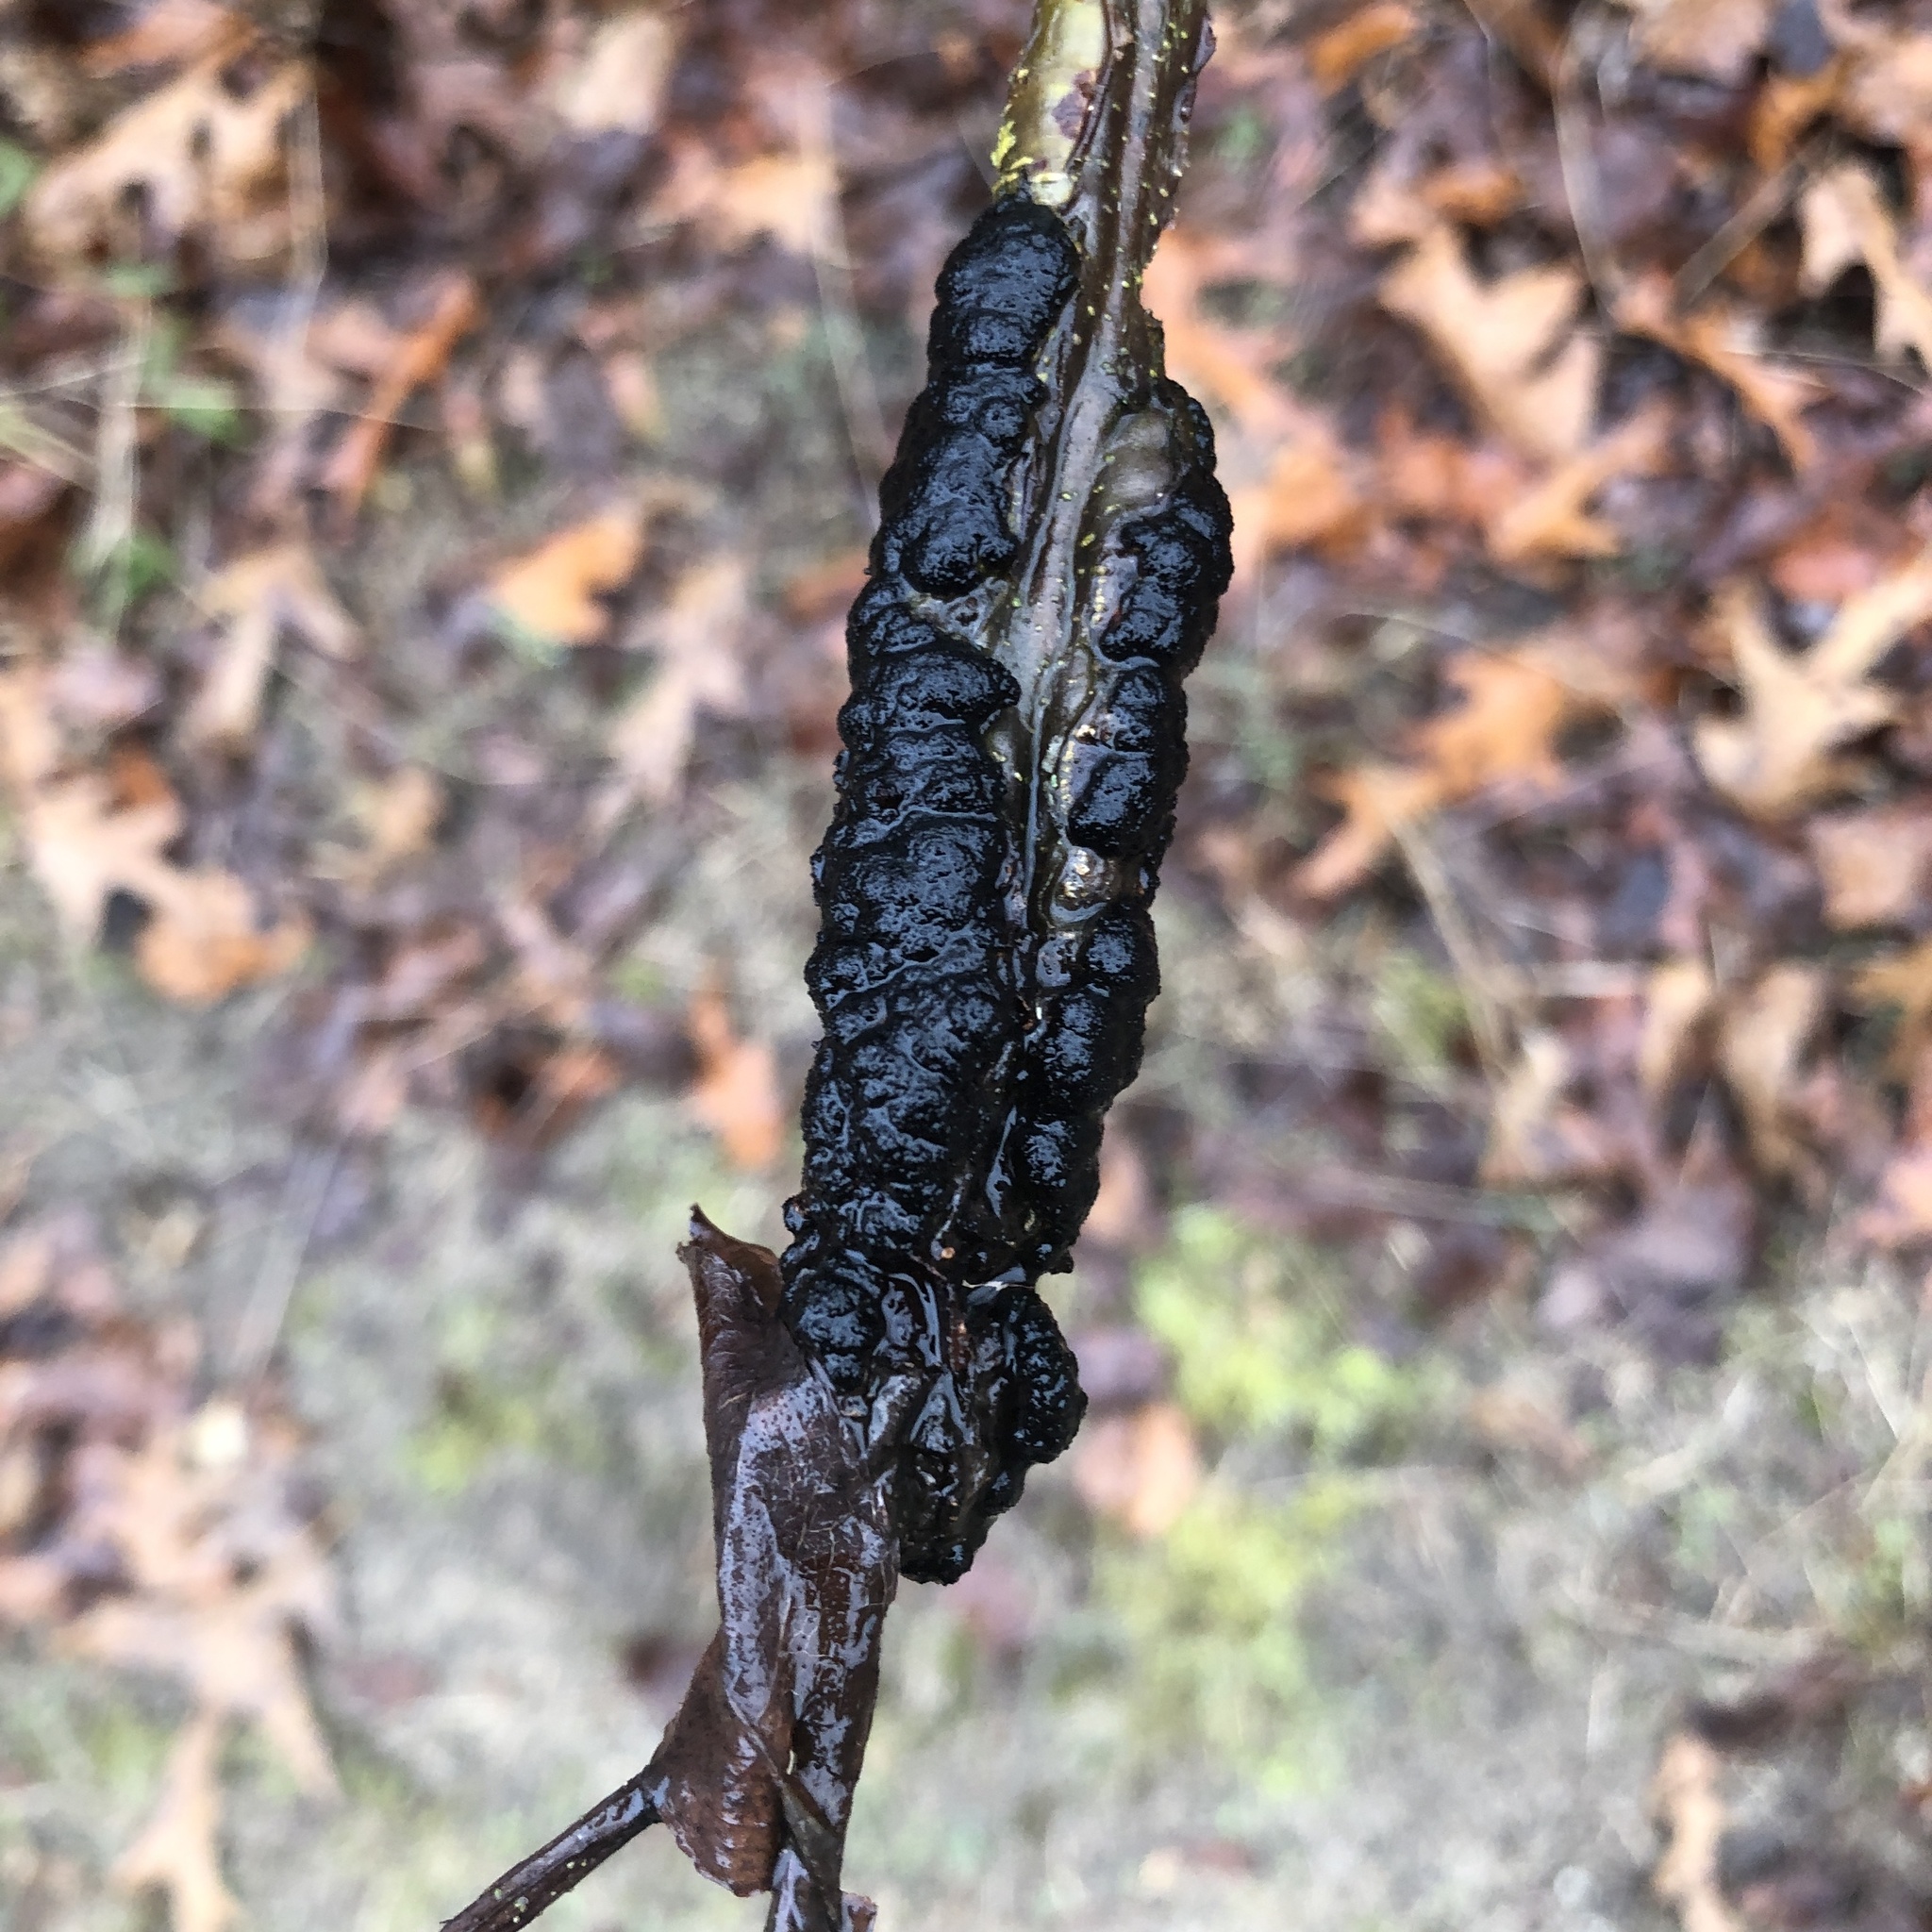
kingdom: Fungi
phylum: Ascomycota
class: Dothideomycetes
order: Venturiales
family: Venturiaceae
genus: Apiosporina
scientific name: Apiosporina morbosa
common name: Black knot
